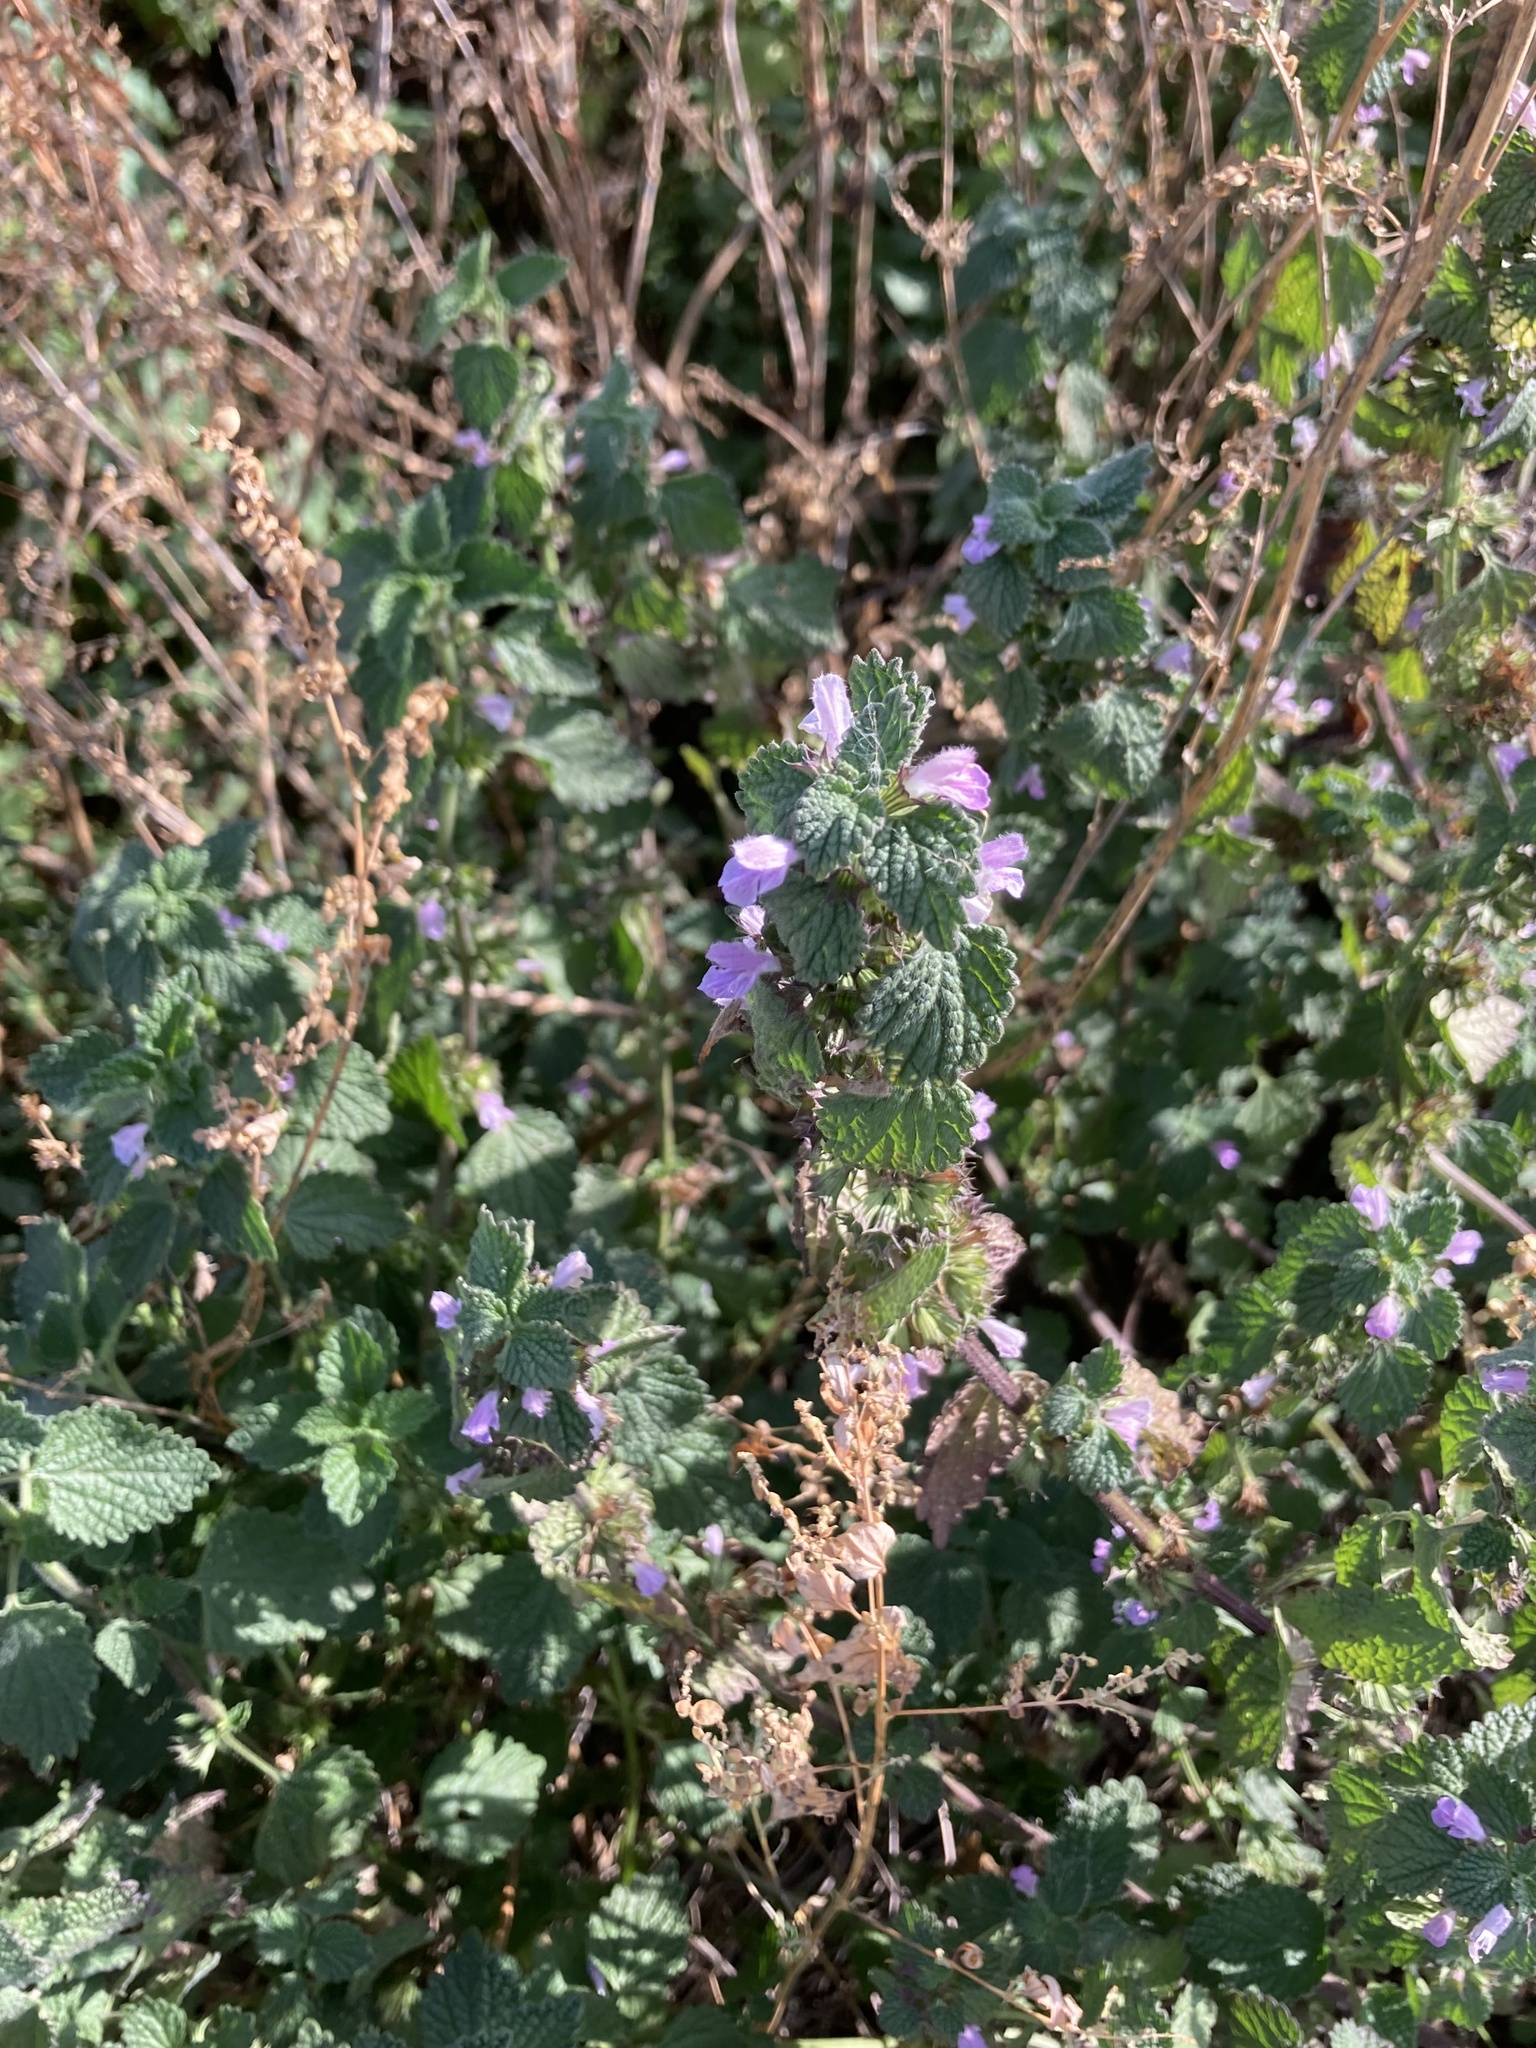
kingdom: Plantae
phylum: Tracheophyta
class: Magnoliopsida
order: Lamiales
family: Lamiaceae
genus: Ballota
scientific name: Ballota nigra
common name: Black horehound
